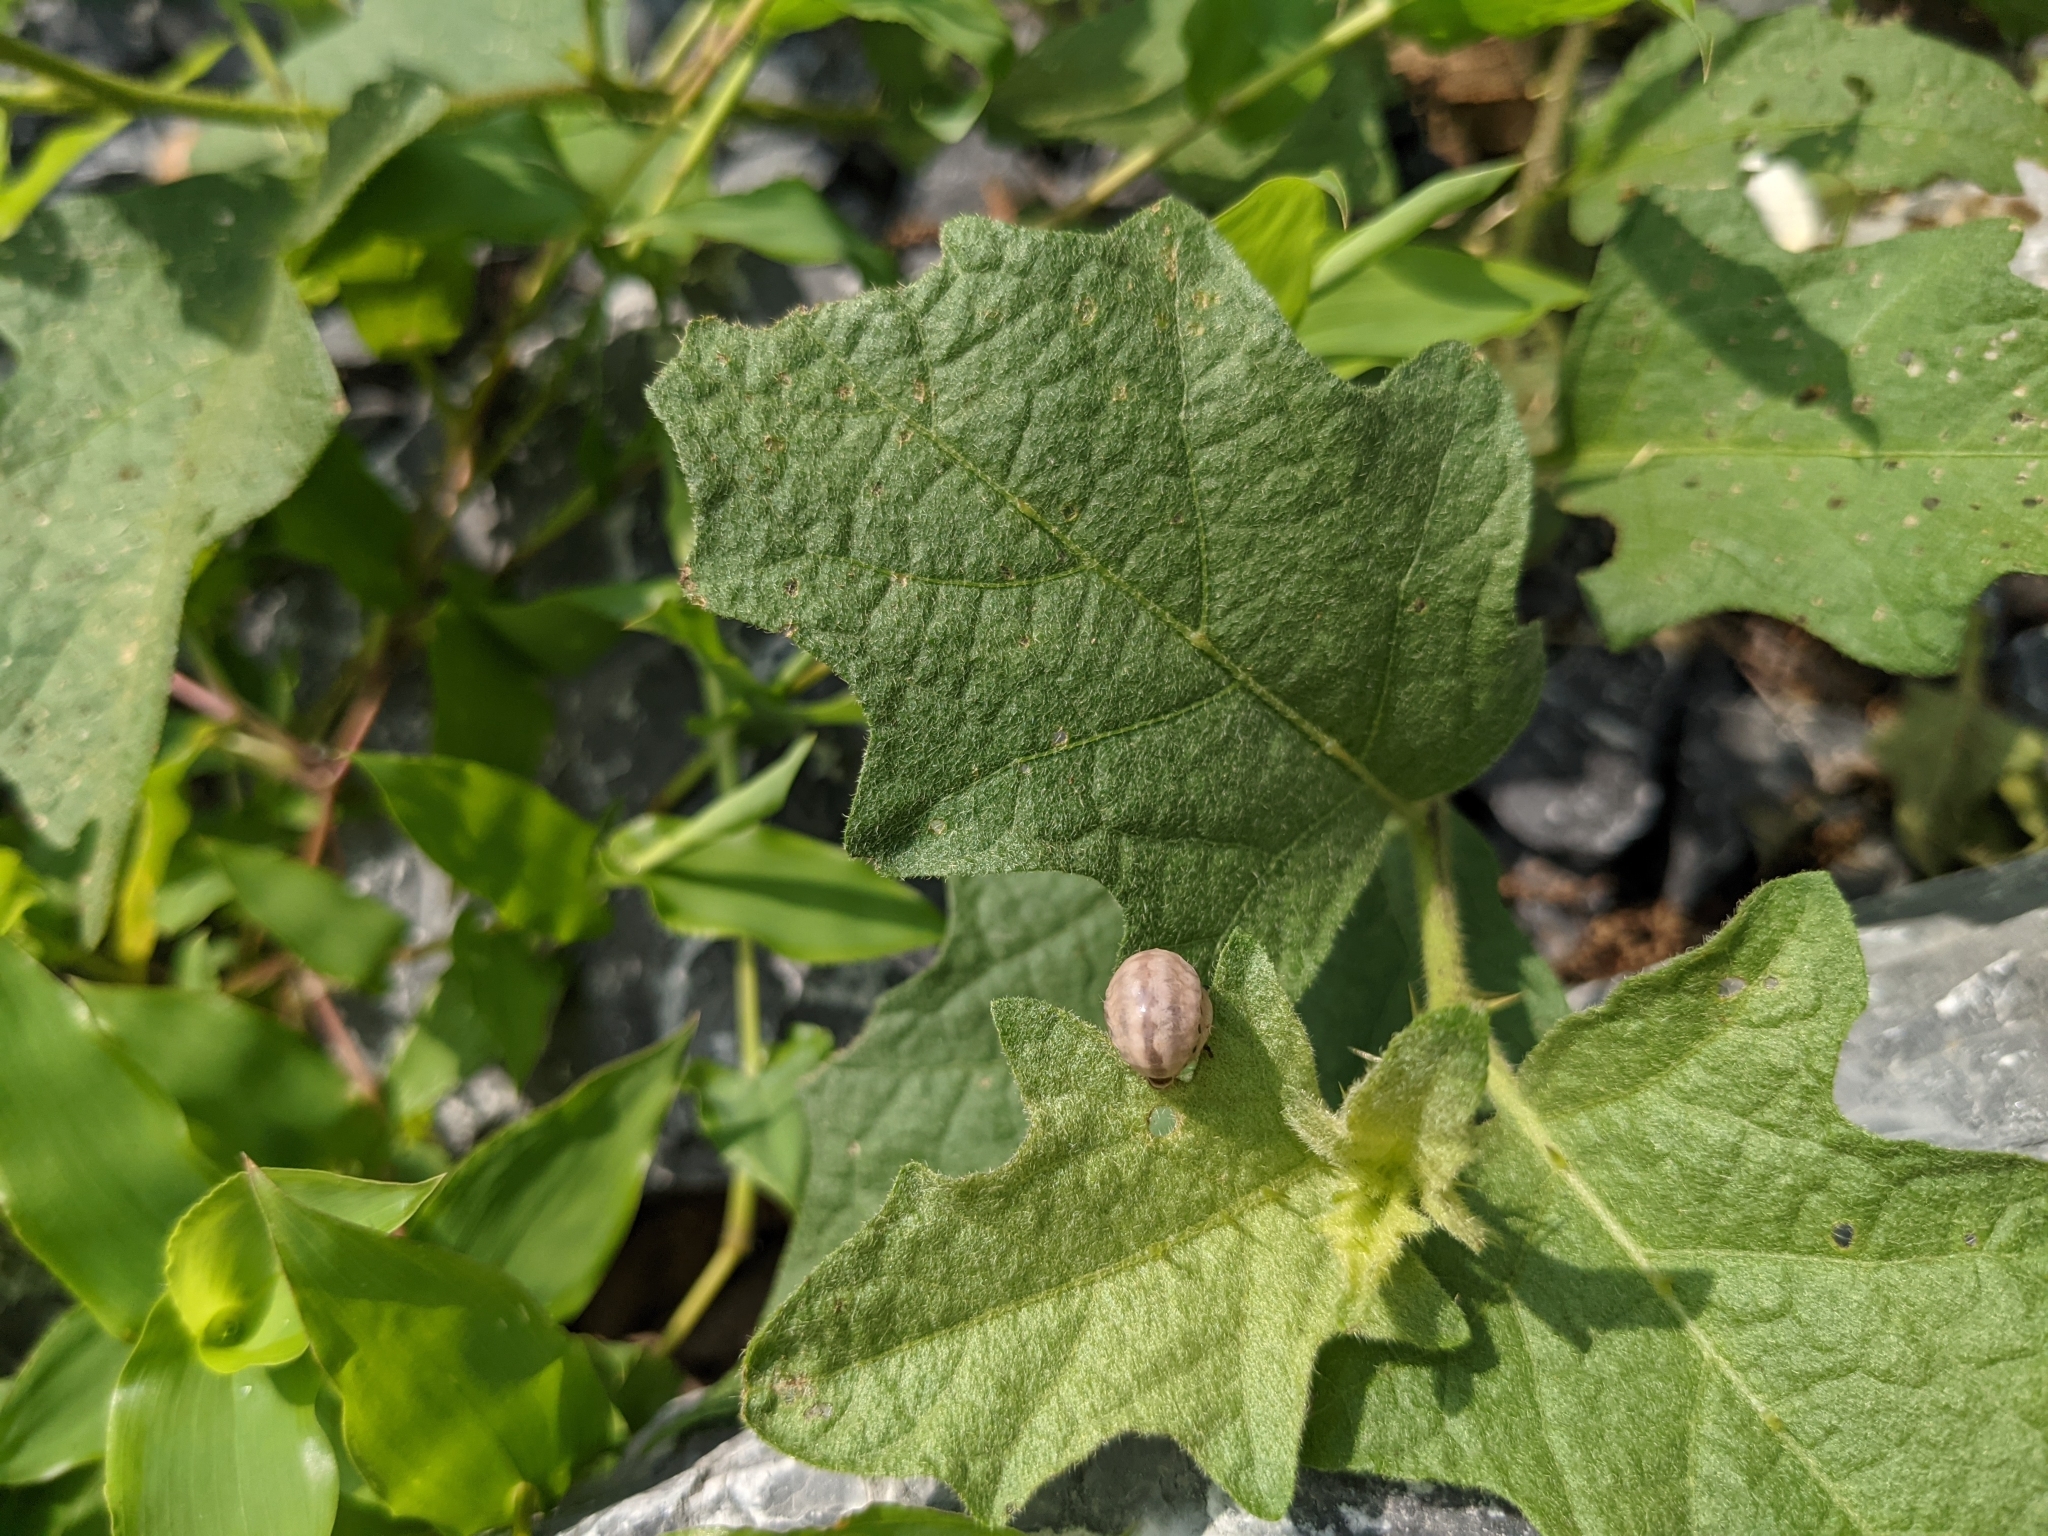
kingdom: Animalia
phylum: Arthropoda
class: Insecta
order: Coleoptera
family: Chrysomelidae
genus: Leptinotarsa
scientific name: Leptinotarsa juncta
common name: False potato beetle
